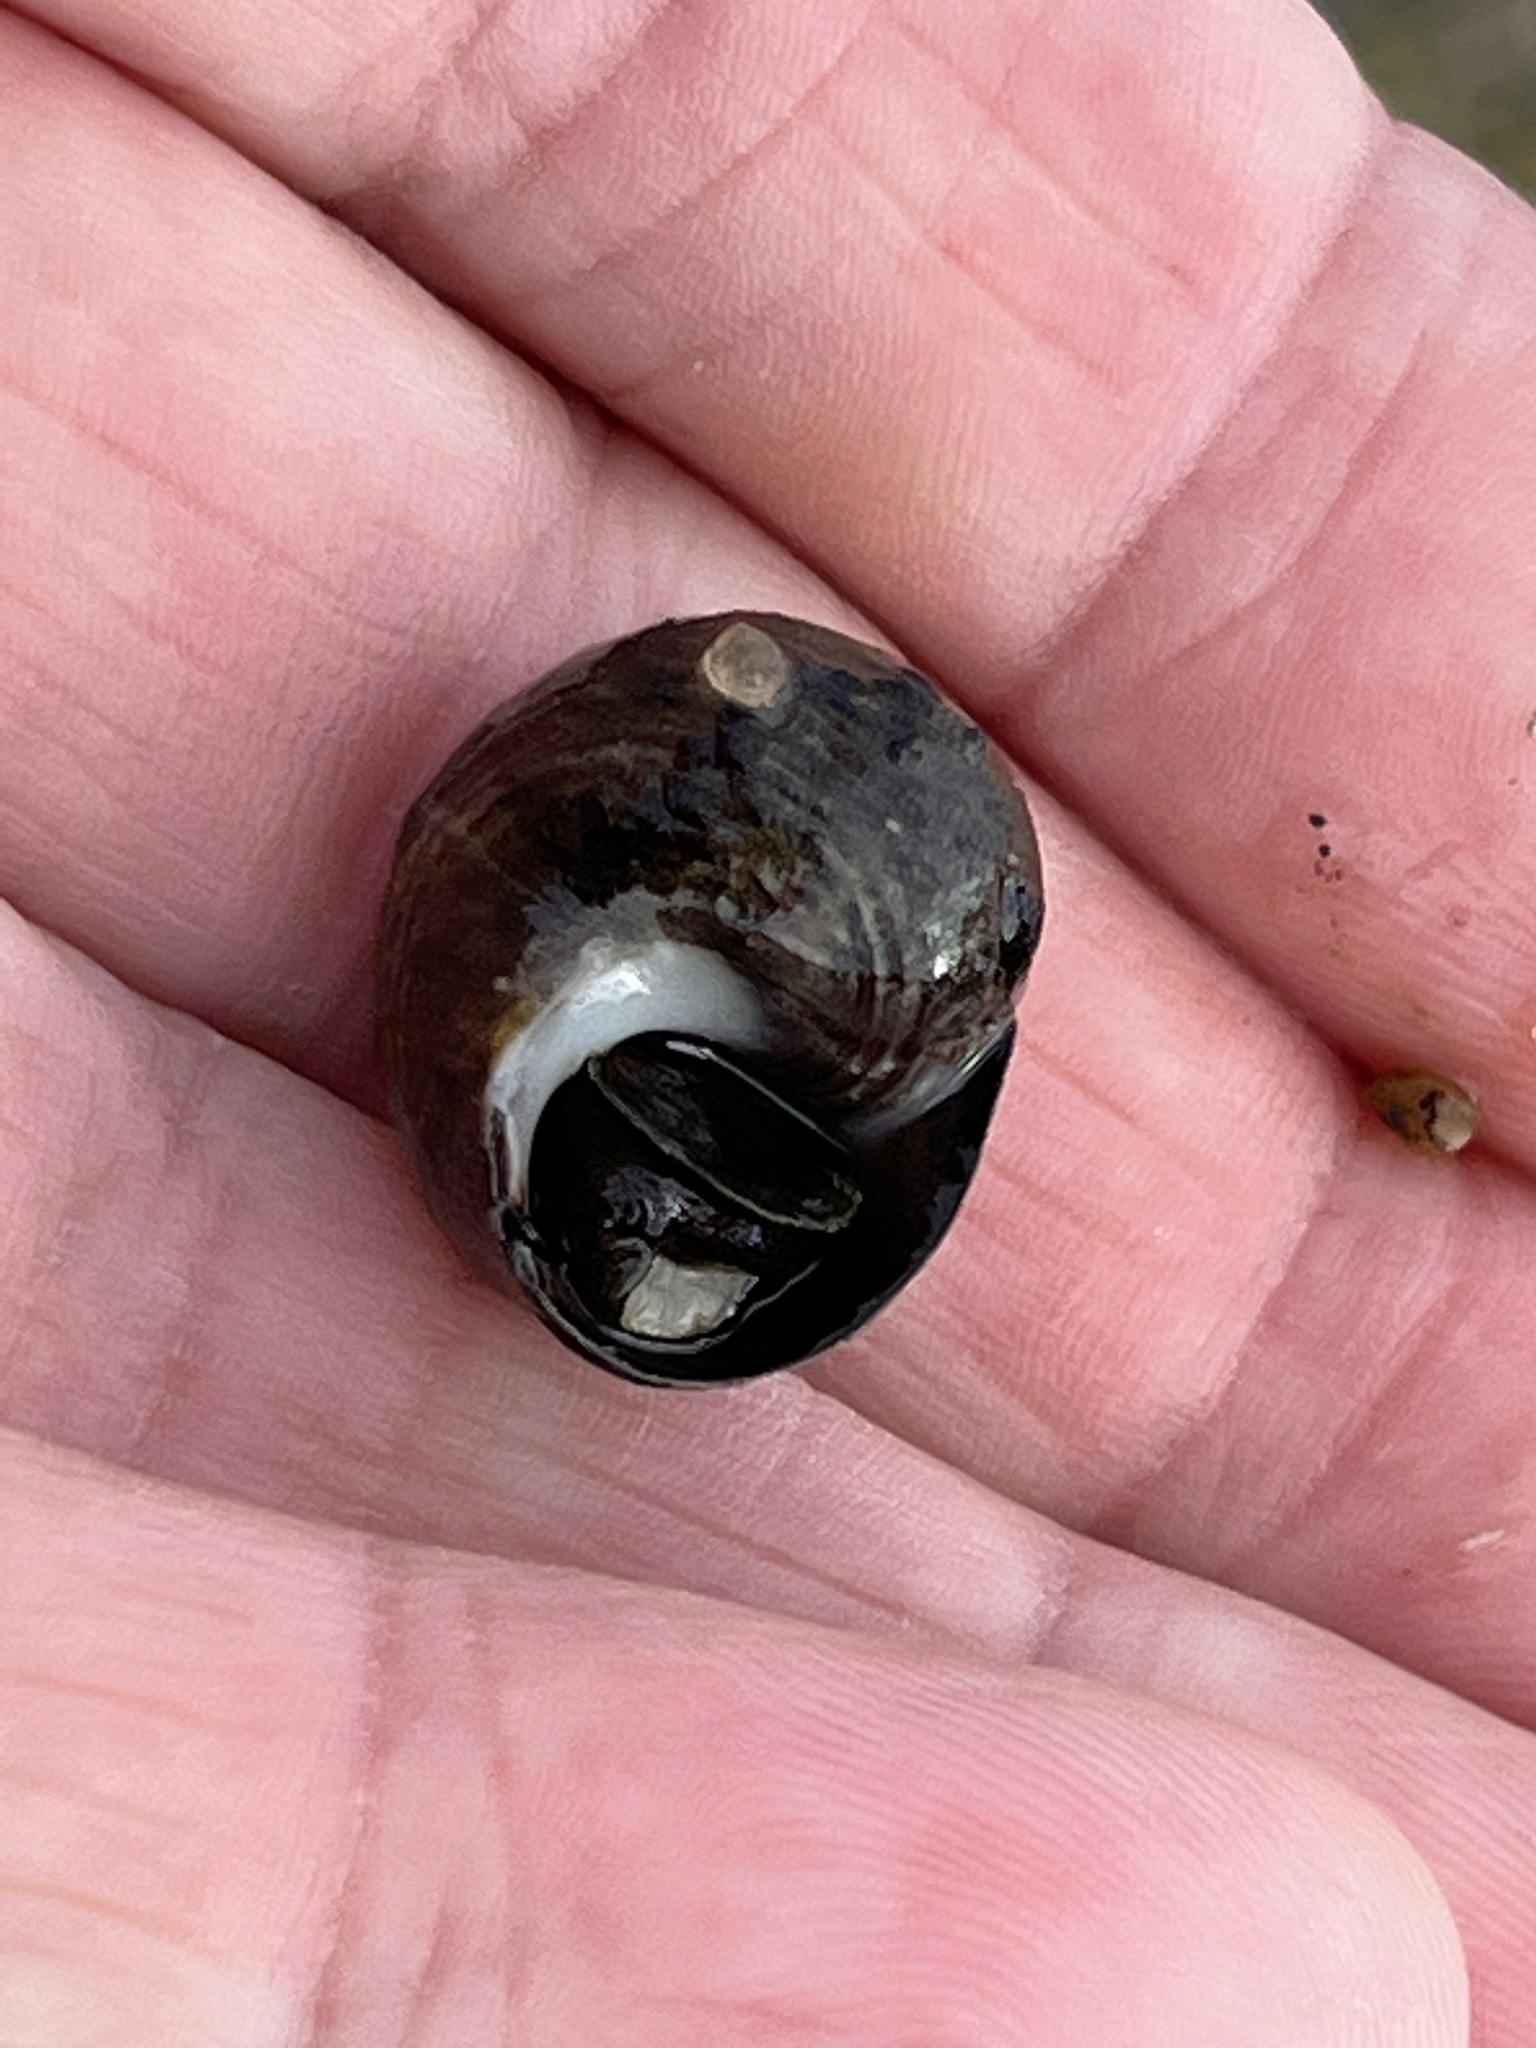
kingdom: Animalia
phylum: Mollusca
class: Gastropoda
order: Littorinimorpha
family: Littorinidae
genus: Littorina
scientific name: Littorina littorea
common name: Common periwinkle
